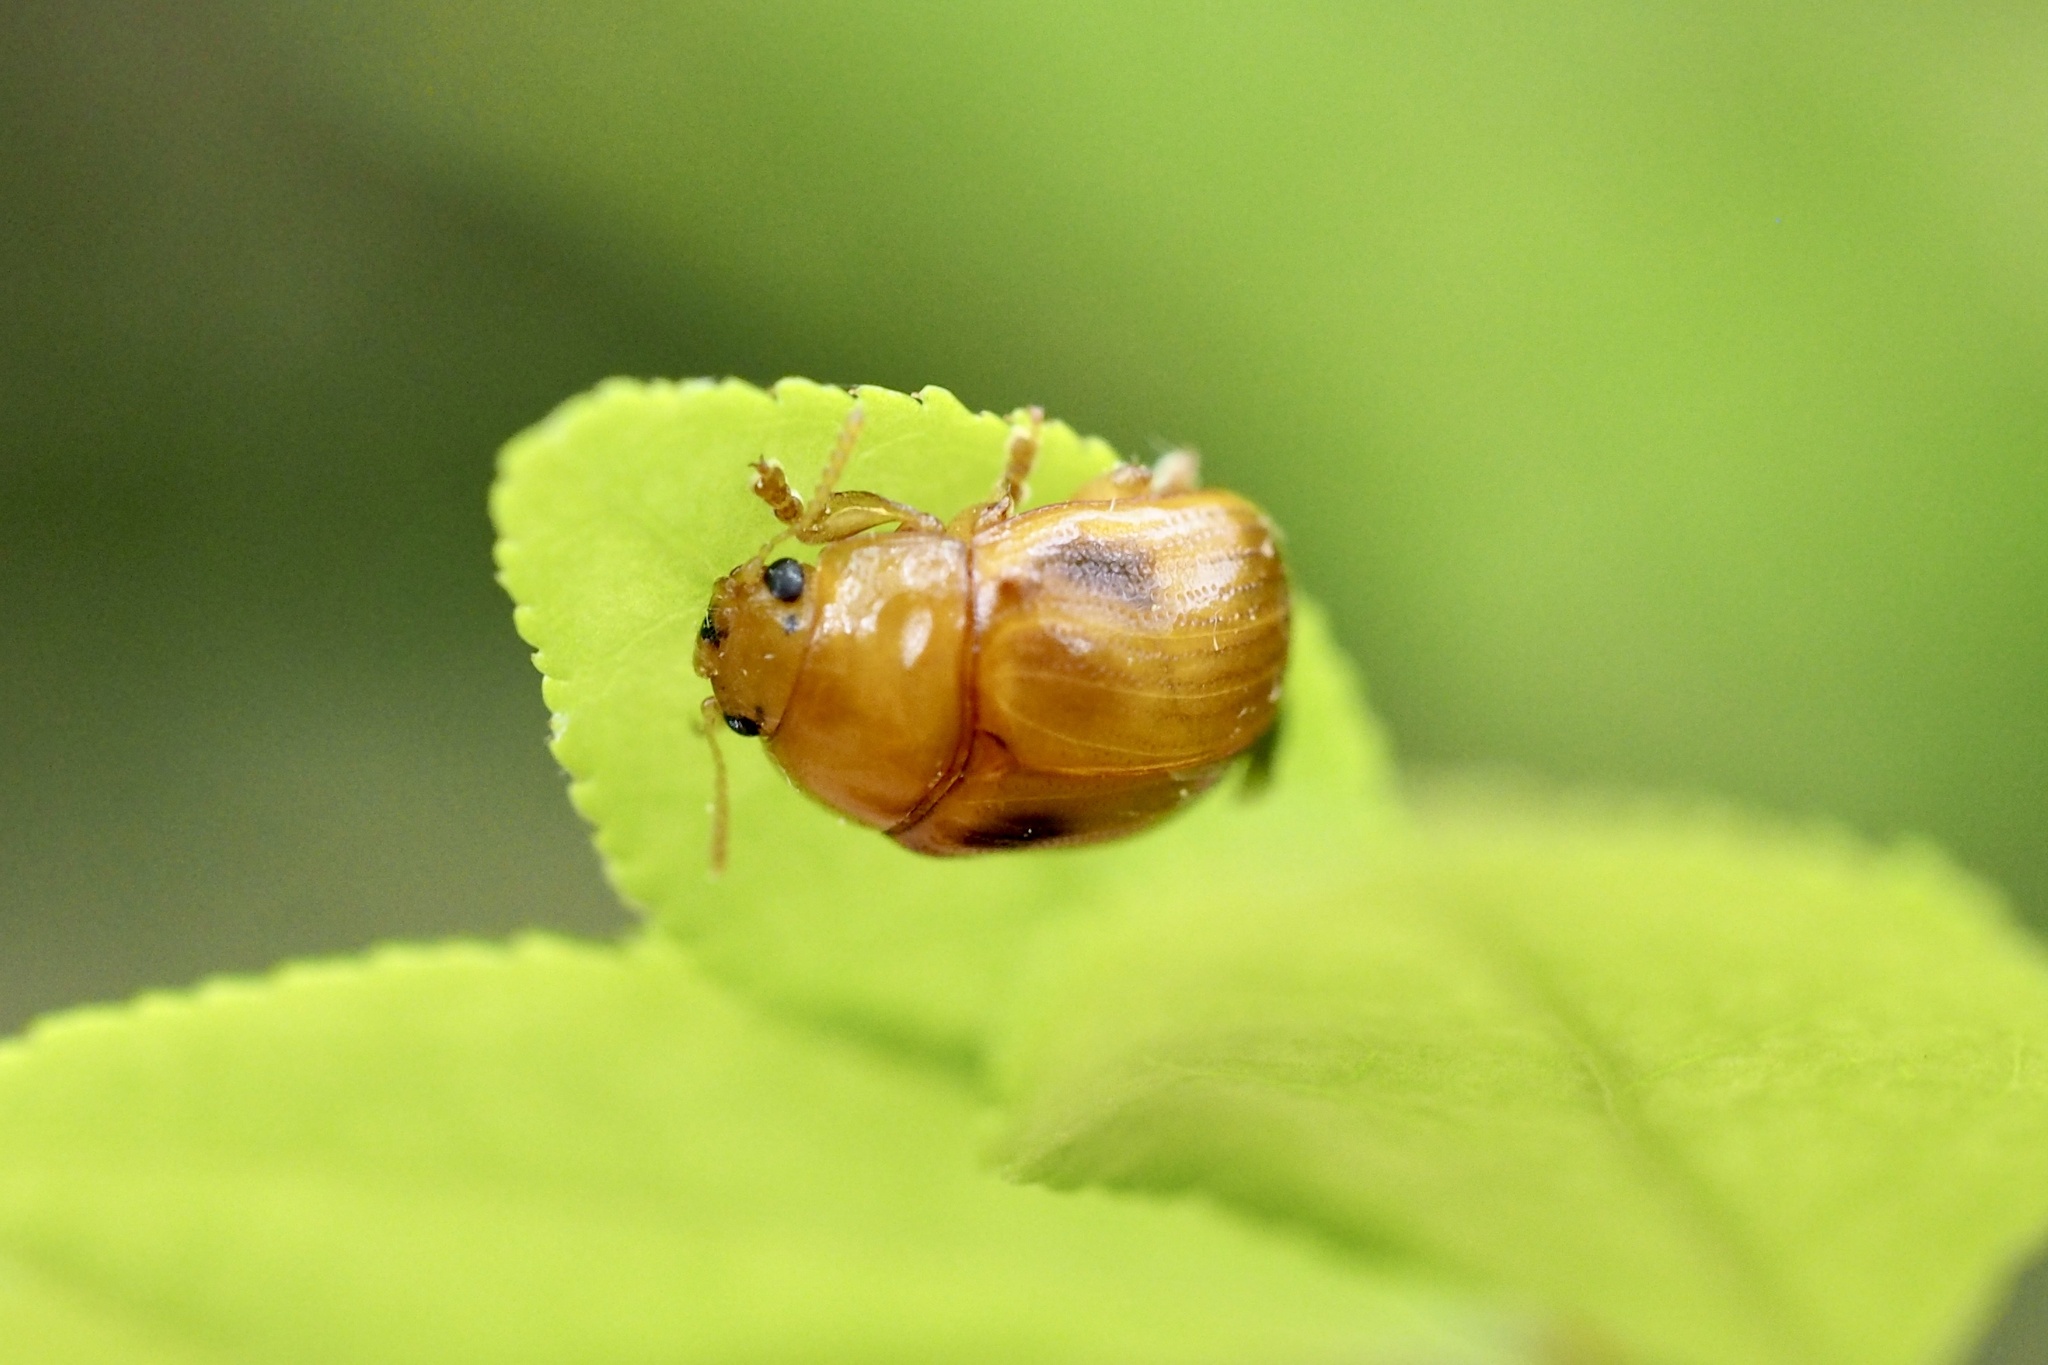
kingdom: Animalia
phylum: Arthropoda
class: Insecta
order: Coleoptera
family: Chrysomelidae
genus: Gonioctena
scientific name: Gonioctena nigroplagiata
